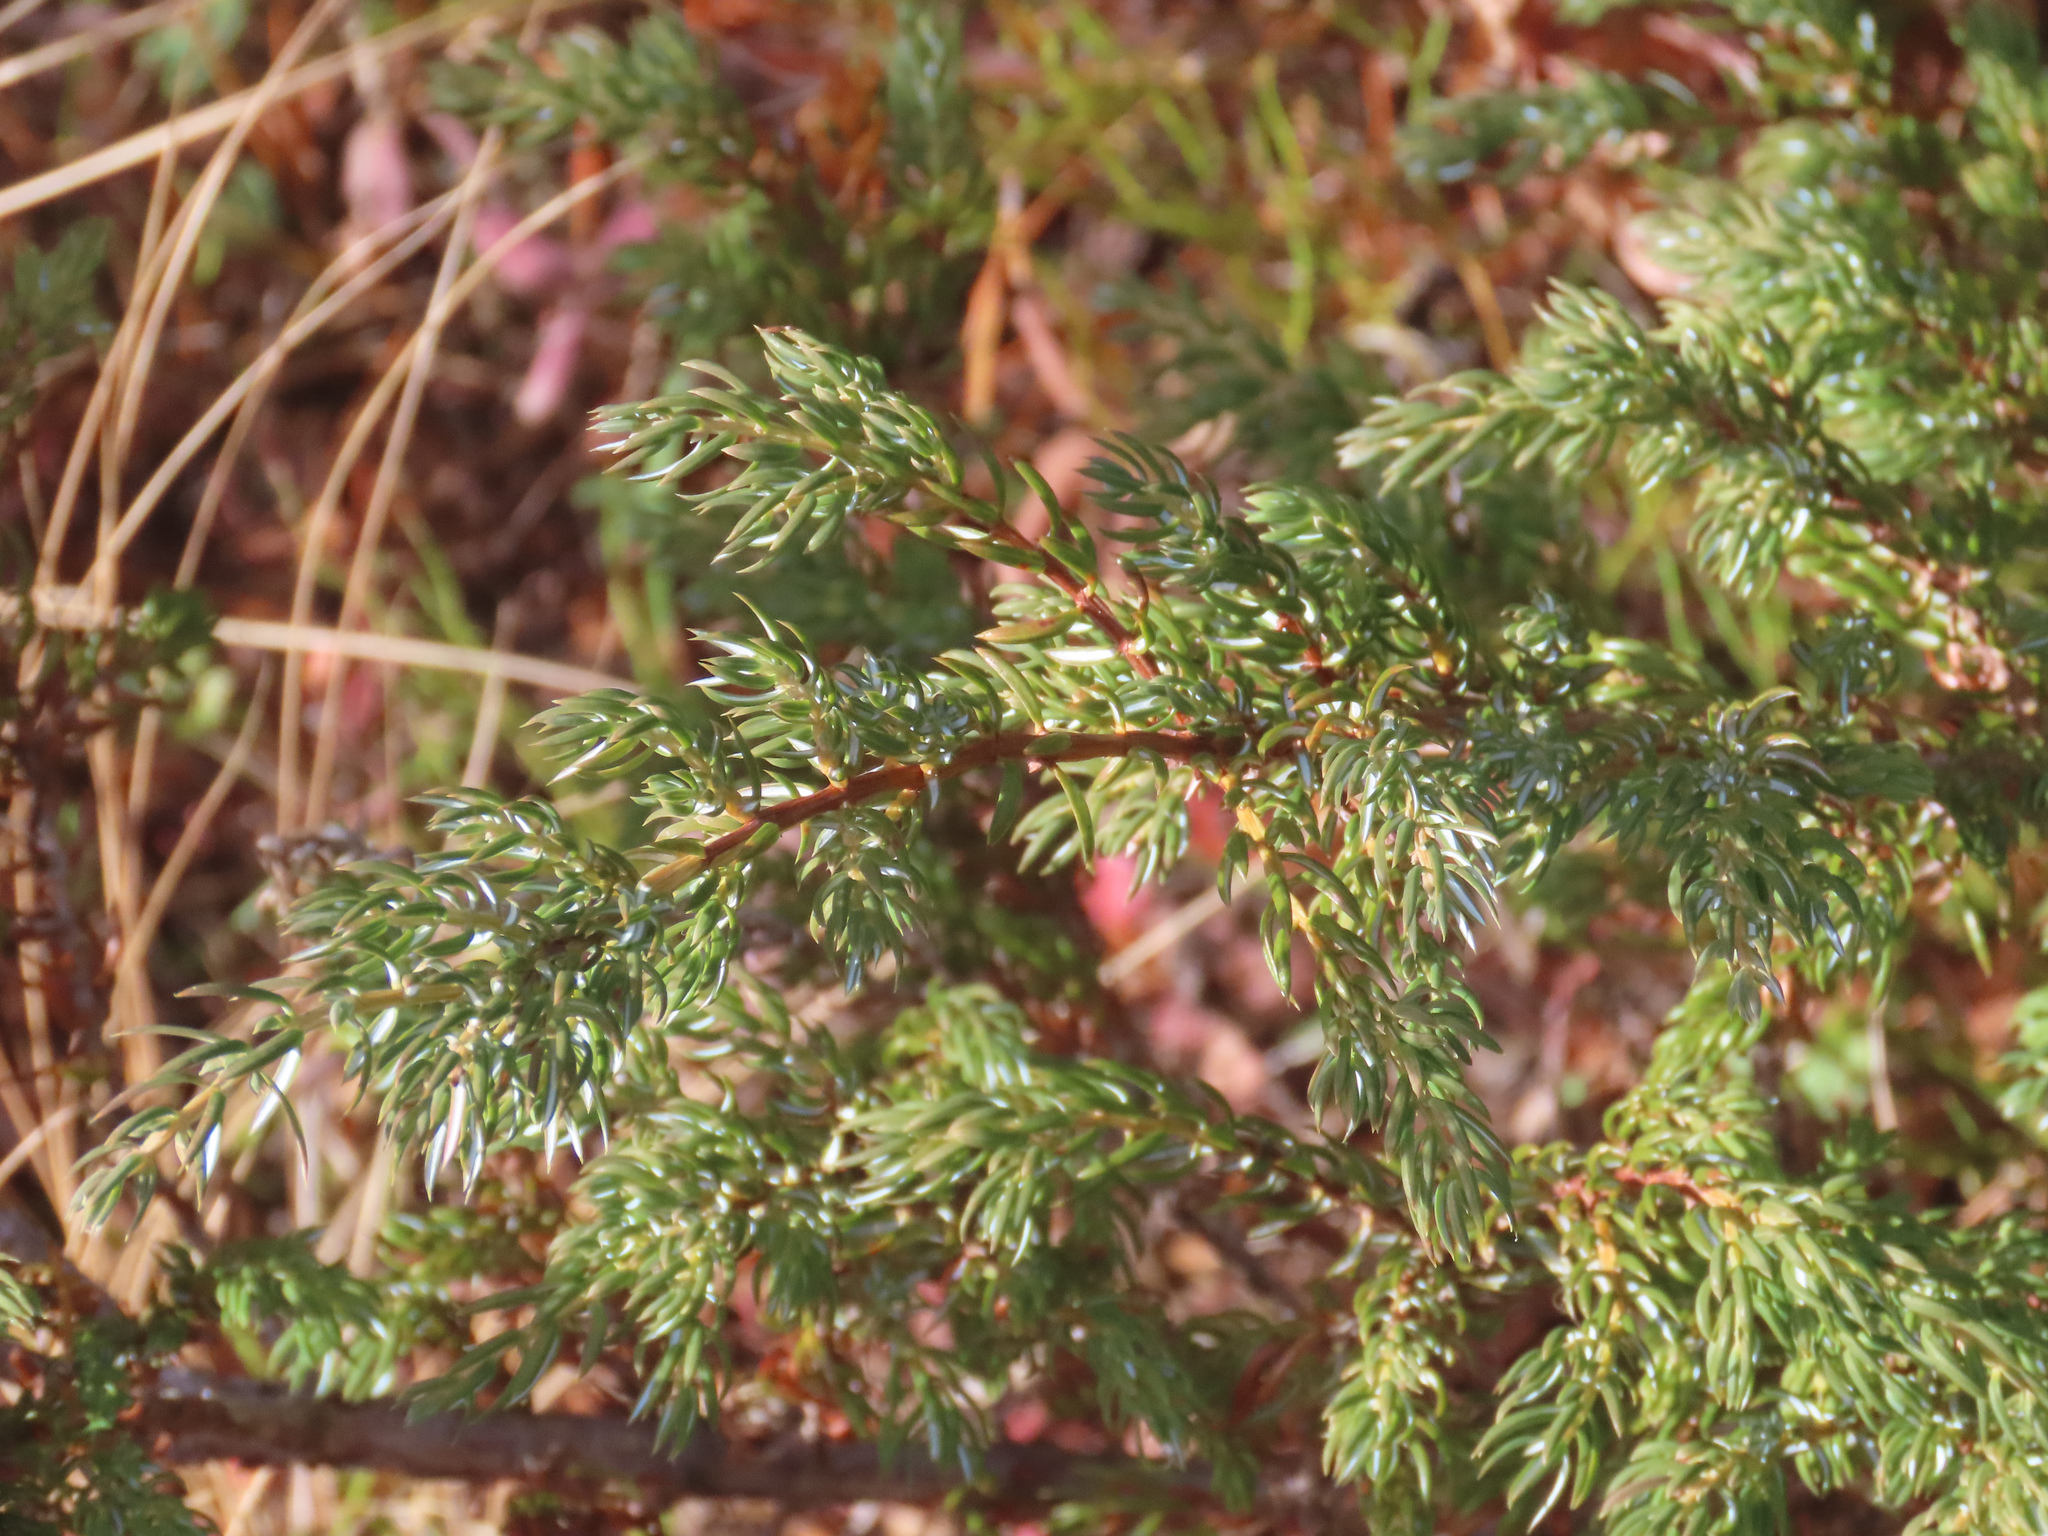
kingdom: Plantae
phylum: Tracheophyta
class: Pinopsida
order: Pinales
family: Cupressaceae
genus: Juniperus
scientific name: Juniperus communis
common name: Common juniper
